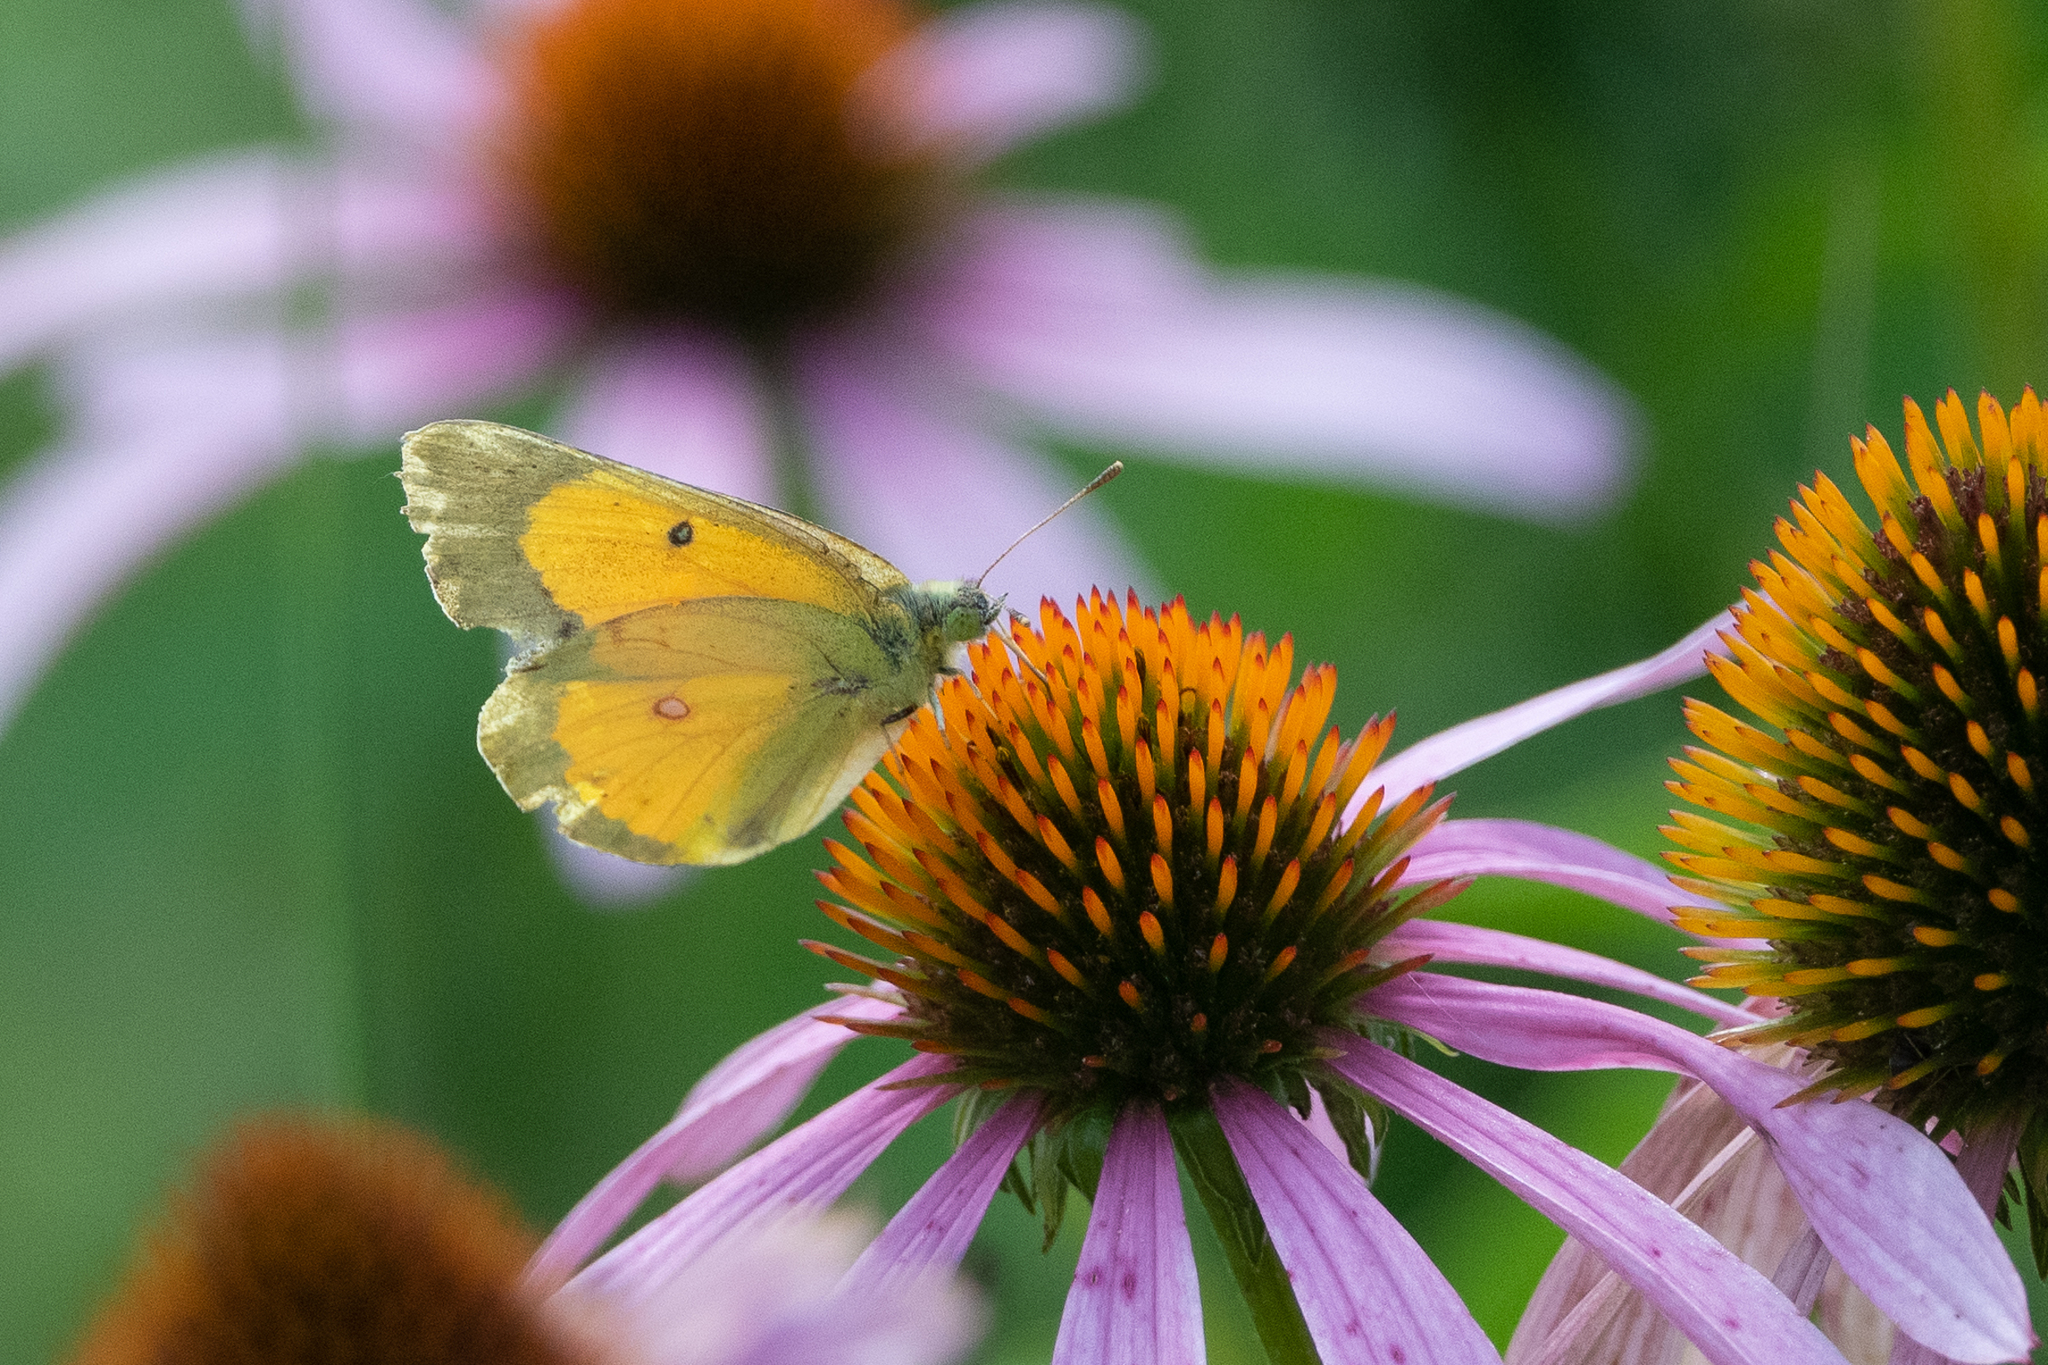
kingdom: Animalia
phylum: Arthropoda
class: Insecta
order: Lepidoptera
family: Pieridae
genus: Colias
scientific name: Colias eurytheme
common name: Alfalfa butterfly
